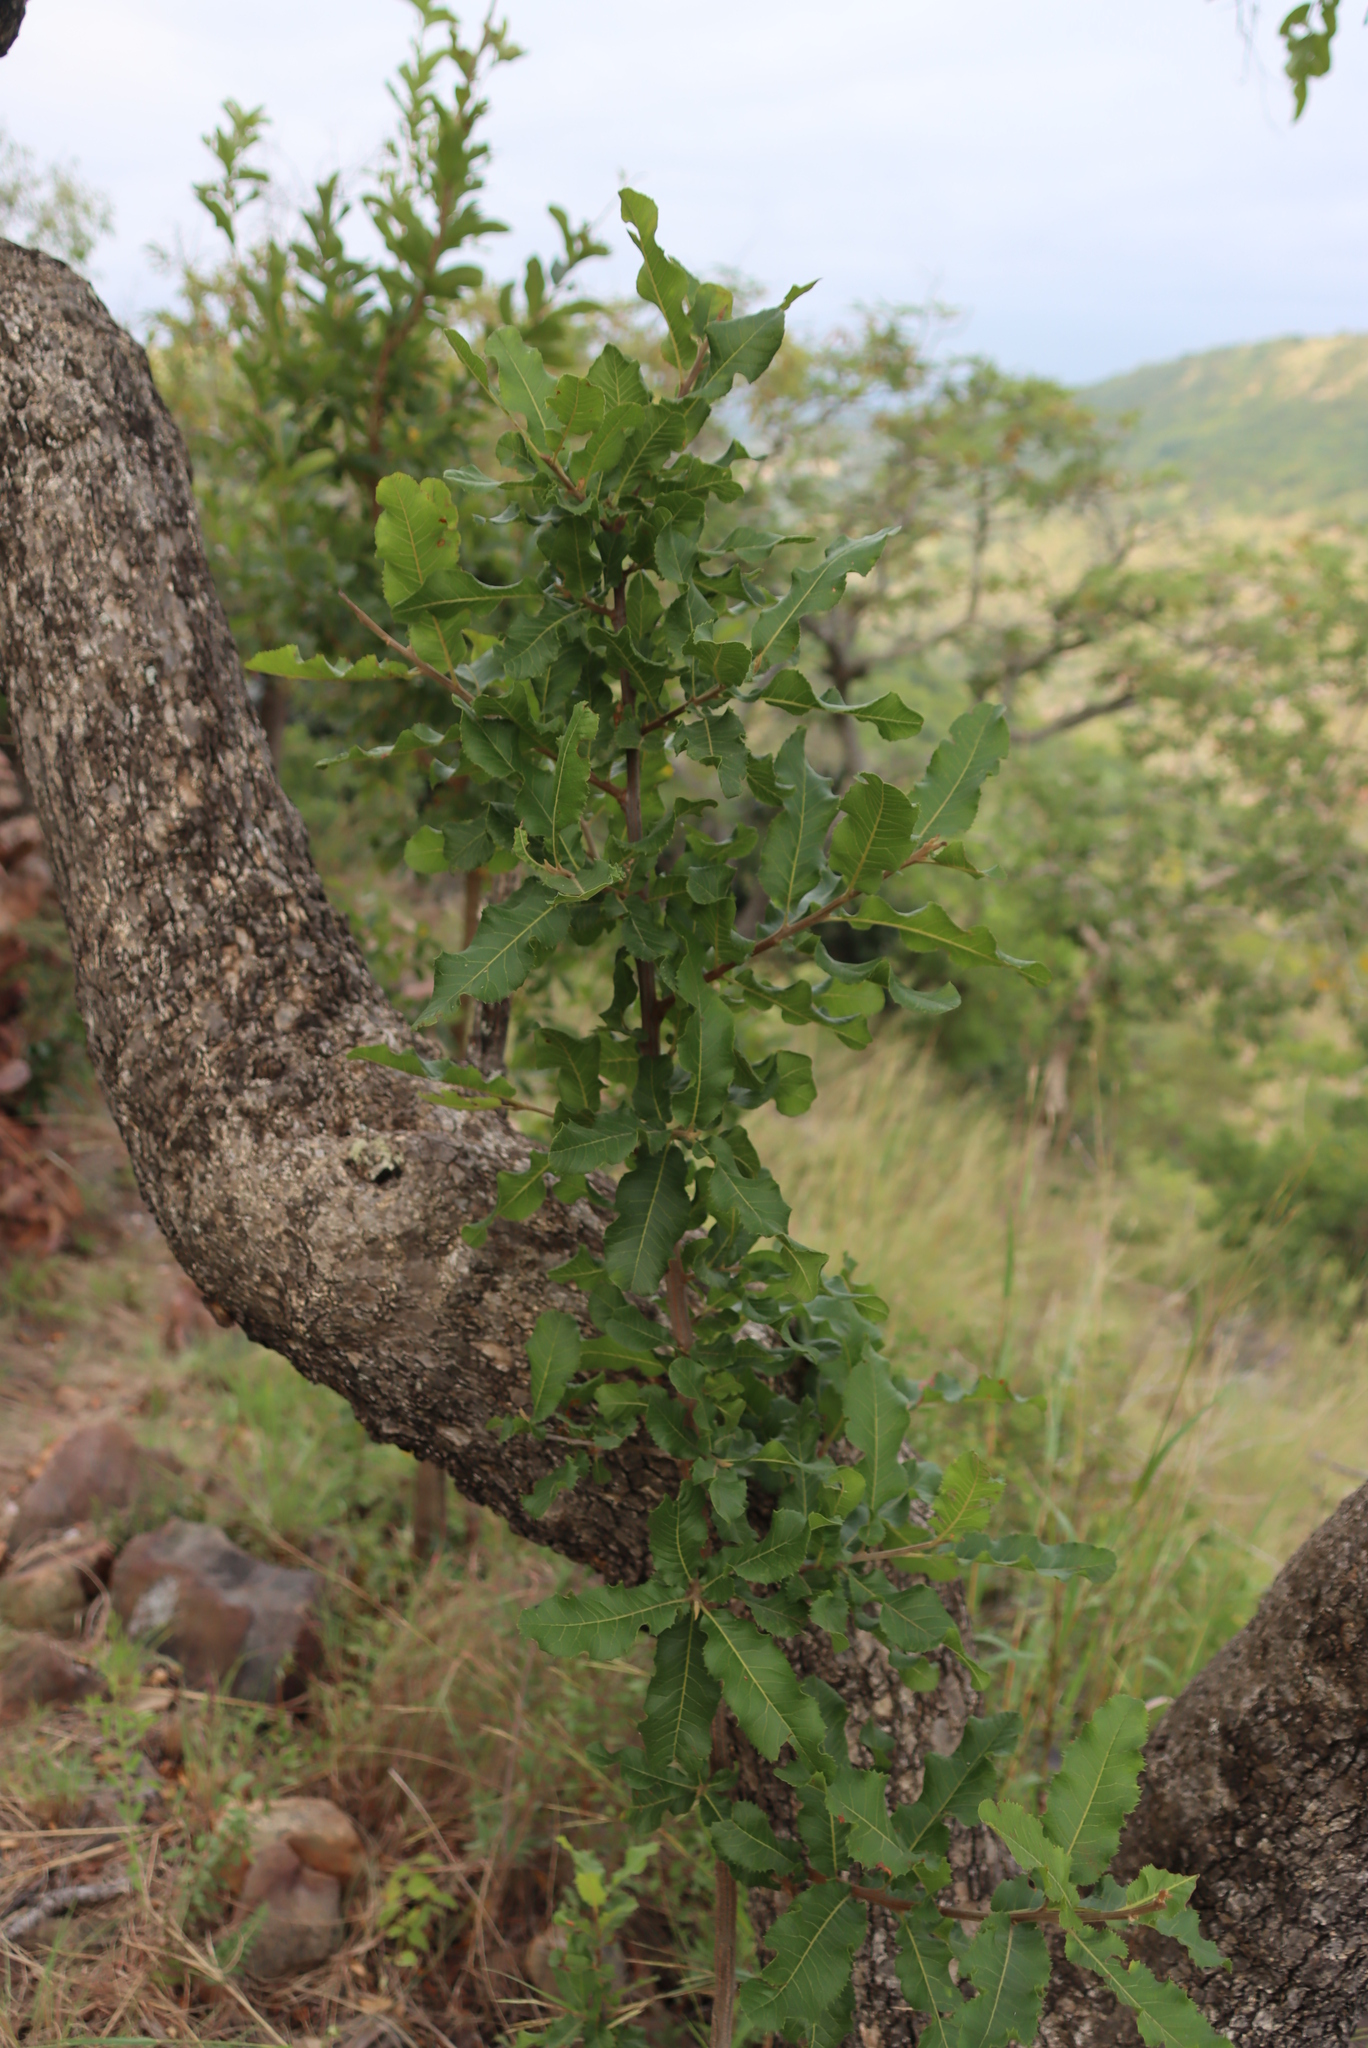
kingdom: Plantae
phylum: Tracheophyta
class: Magnoliopsida
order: Sapindales
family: Sapindaceae
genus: Pappea
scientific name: Pappea capensis
